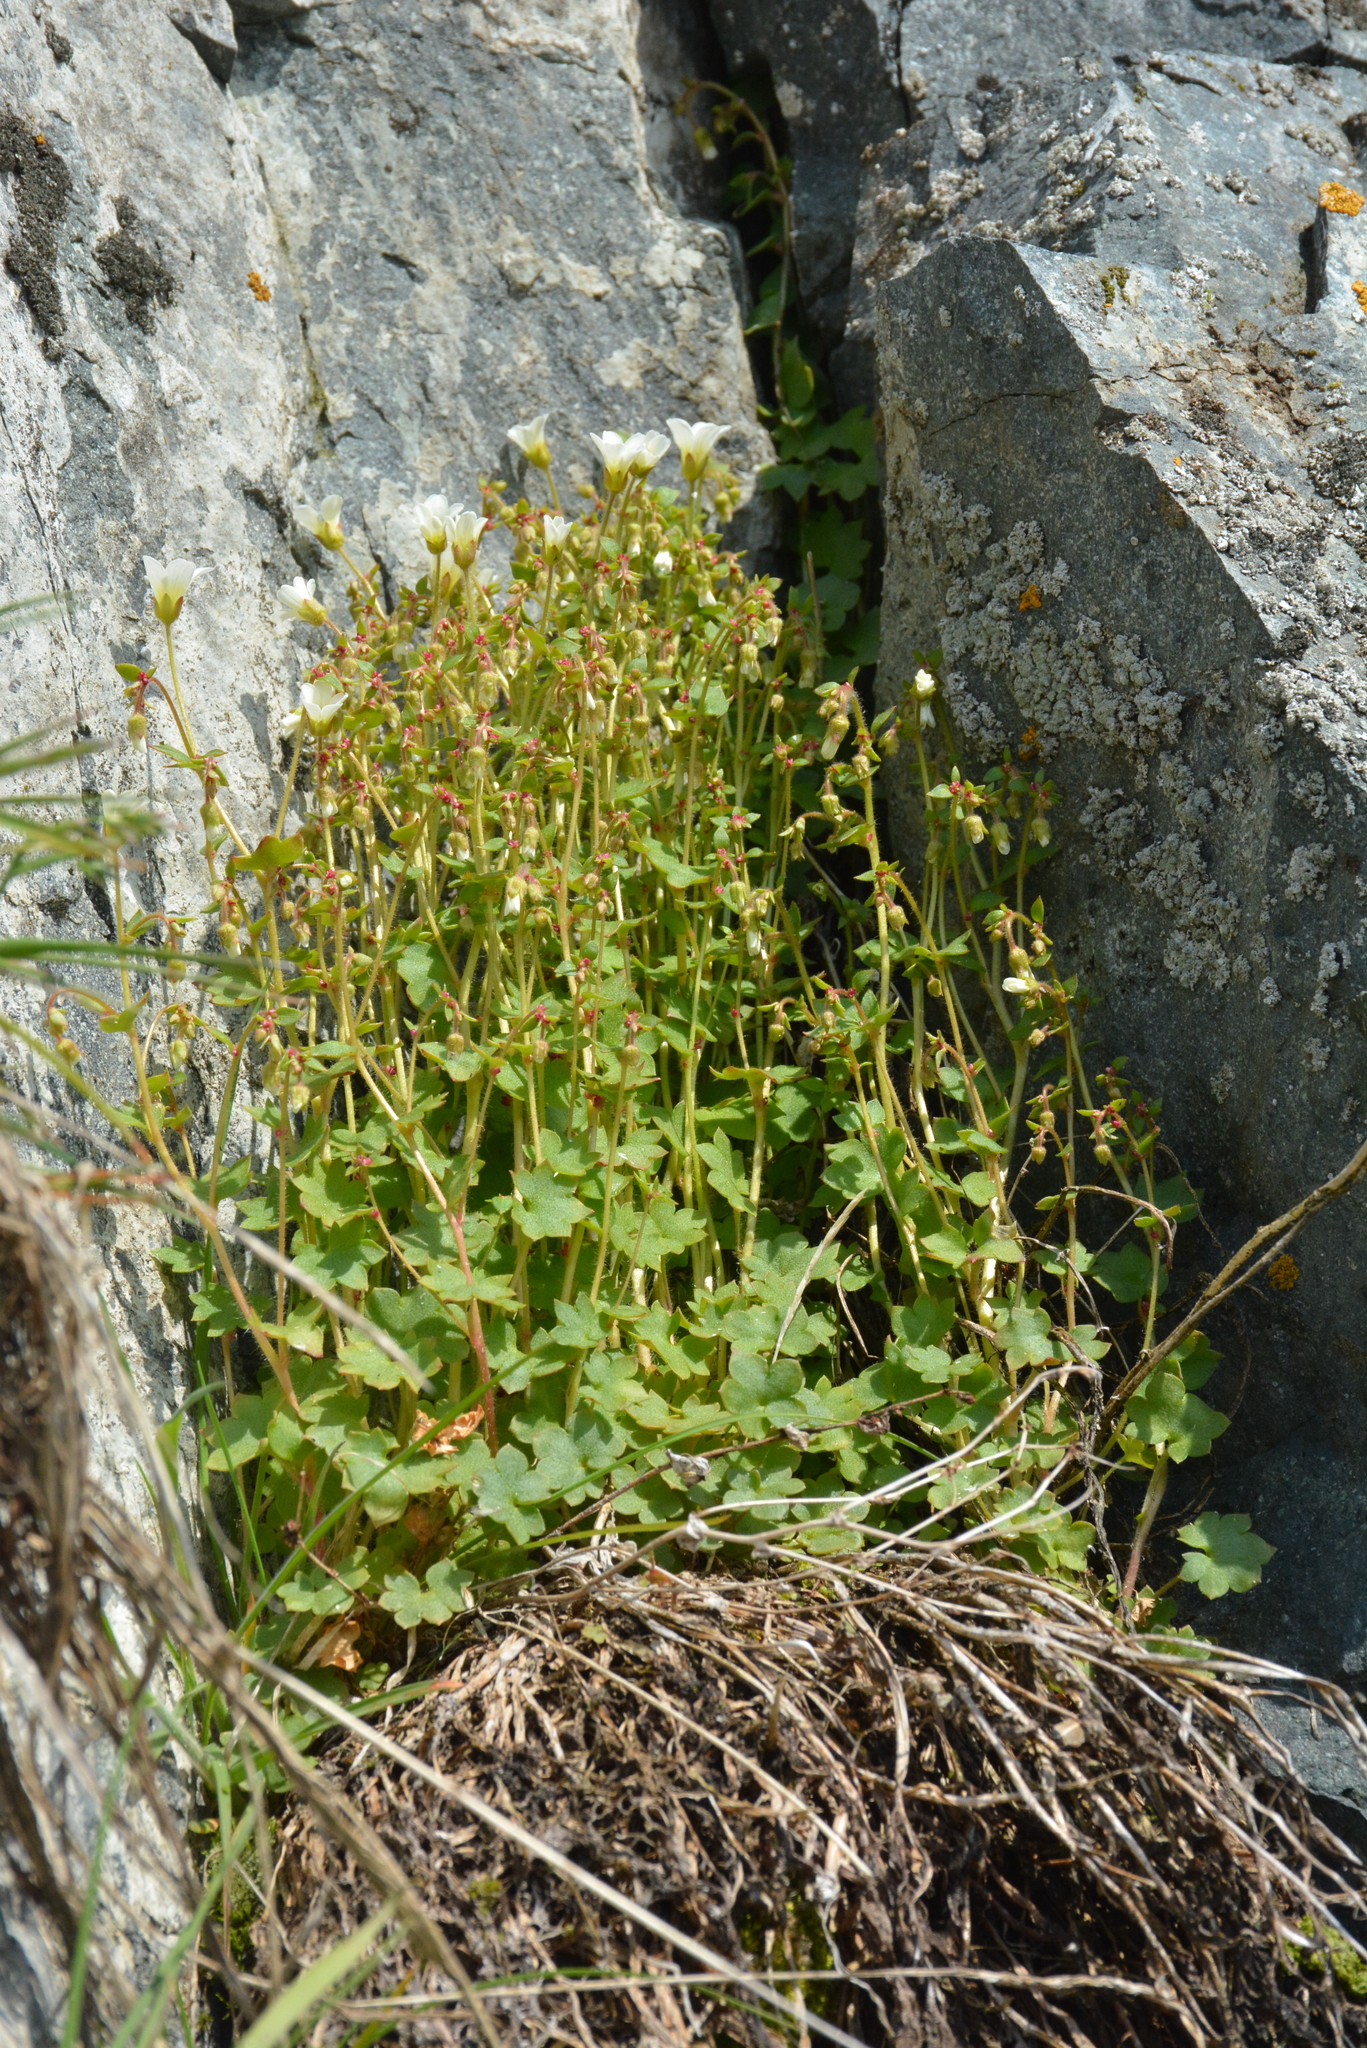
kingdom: Plantae
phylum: Tracheophyta
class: Magnoliopsida
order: Saxifragales
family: Saxifragaceae
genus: Saxifraga
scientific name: Saxifraga cernua
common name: Drooping saxifrage
